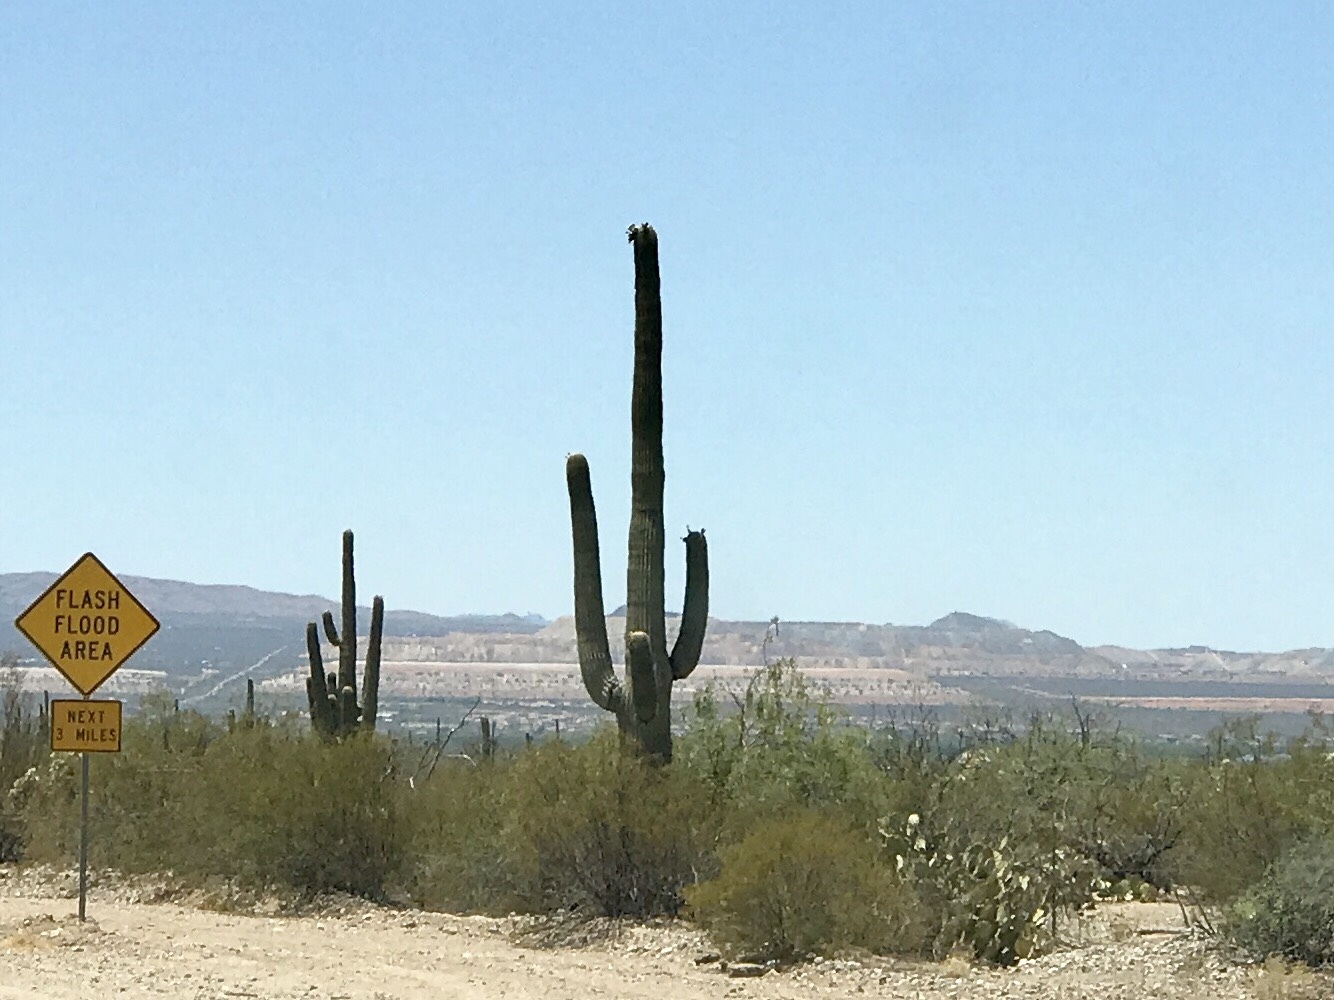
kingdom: Plantae
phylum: Tracheophyta
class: Magnoliopsida
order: Caryophyllales
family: Cactaceae
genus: Carnegiea
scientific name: Carnegiea gigantea
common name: Saguaro
